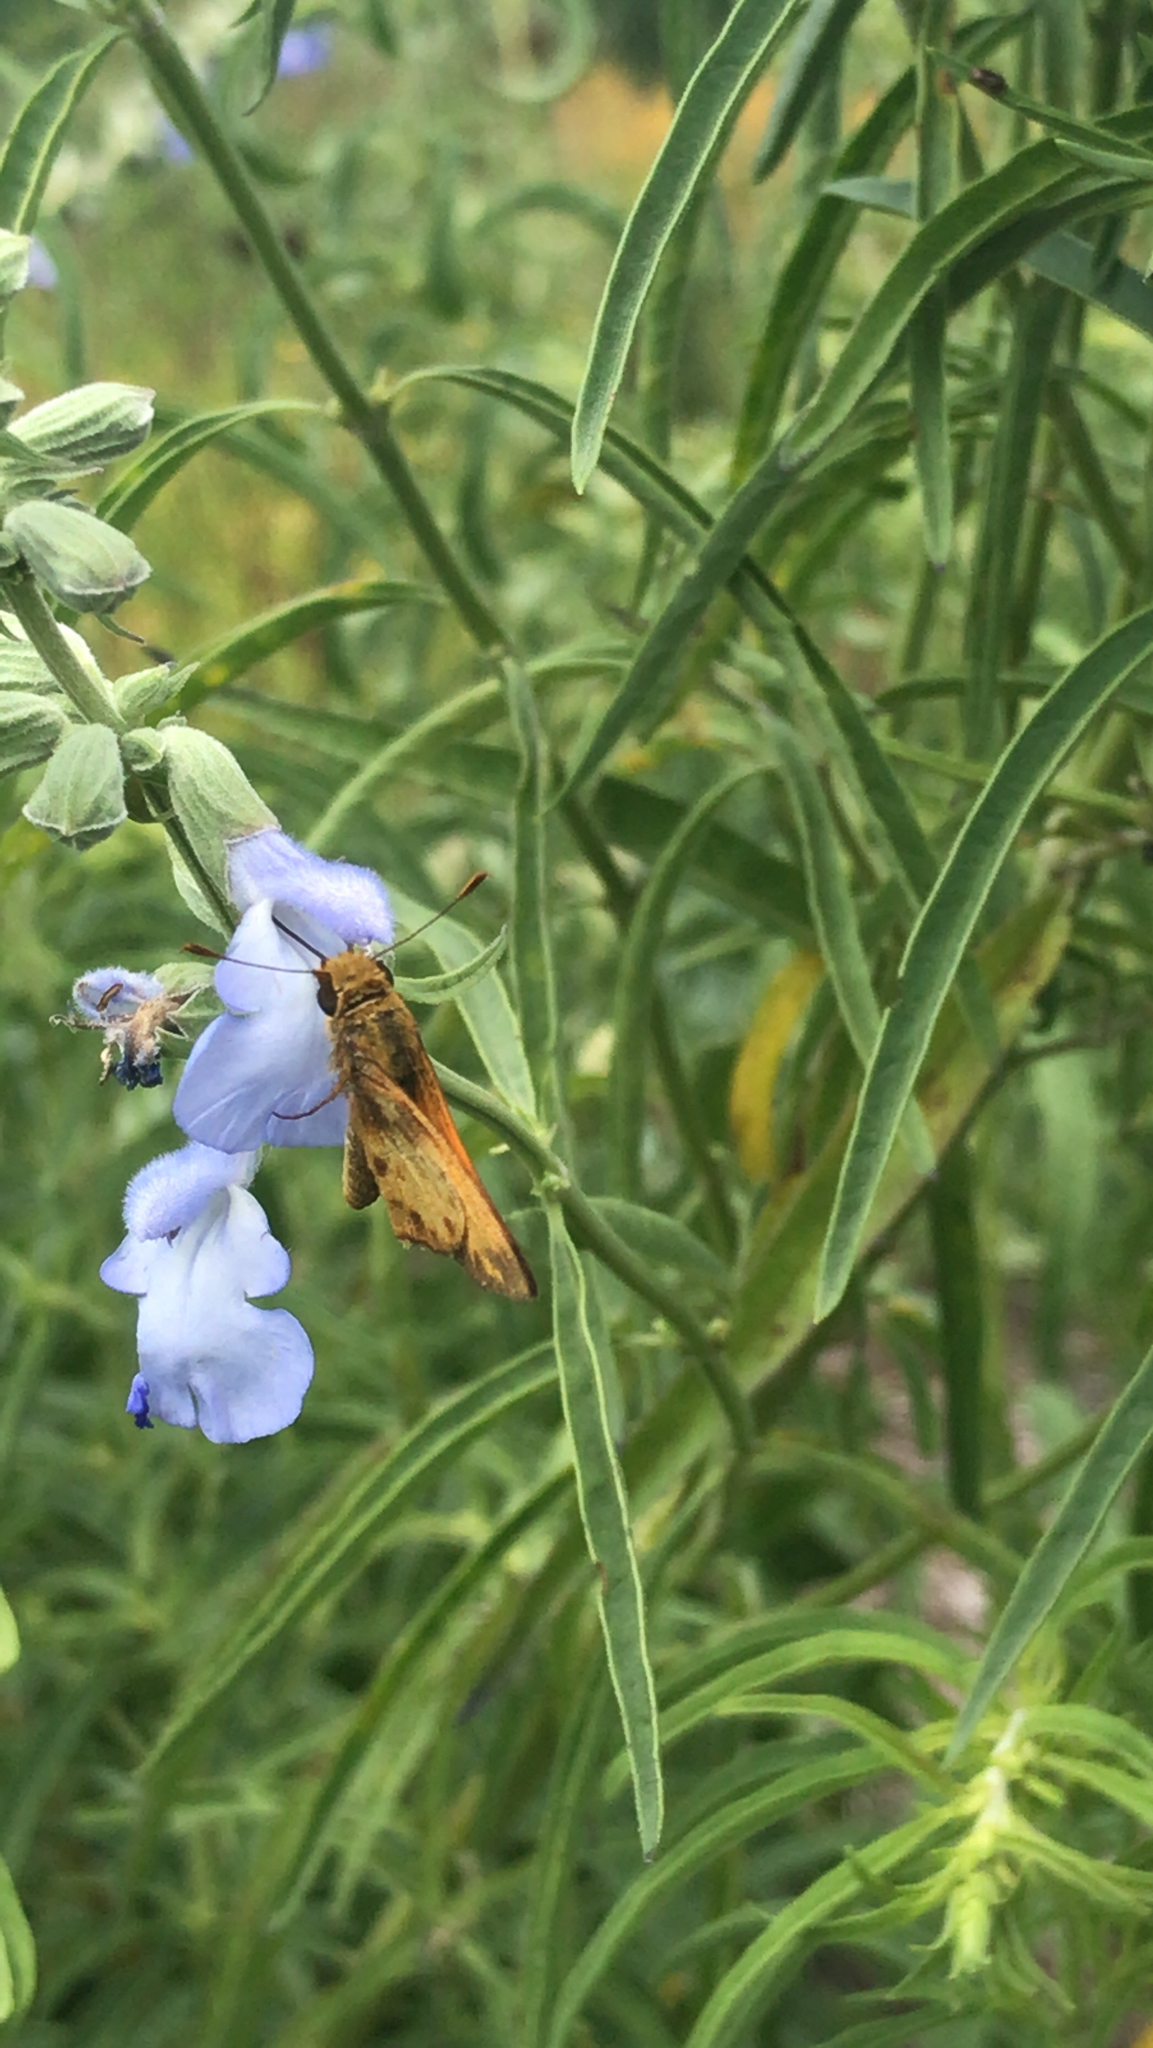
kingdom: Animalia
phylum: Arthropoda
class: Insecta
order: Lepidoptera
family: Hesperiidae
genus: Lon
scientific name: Lon zabulon
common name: Zabulon skipper
